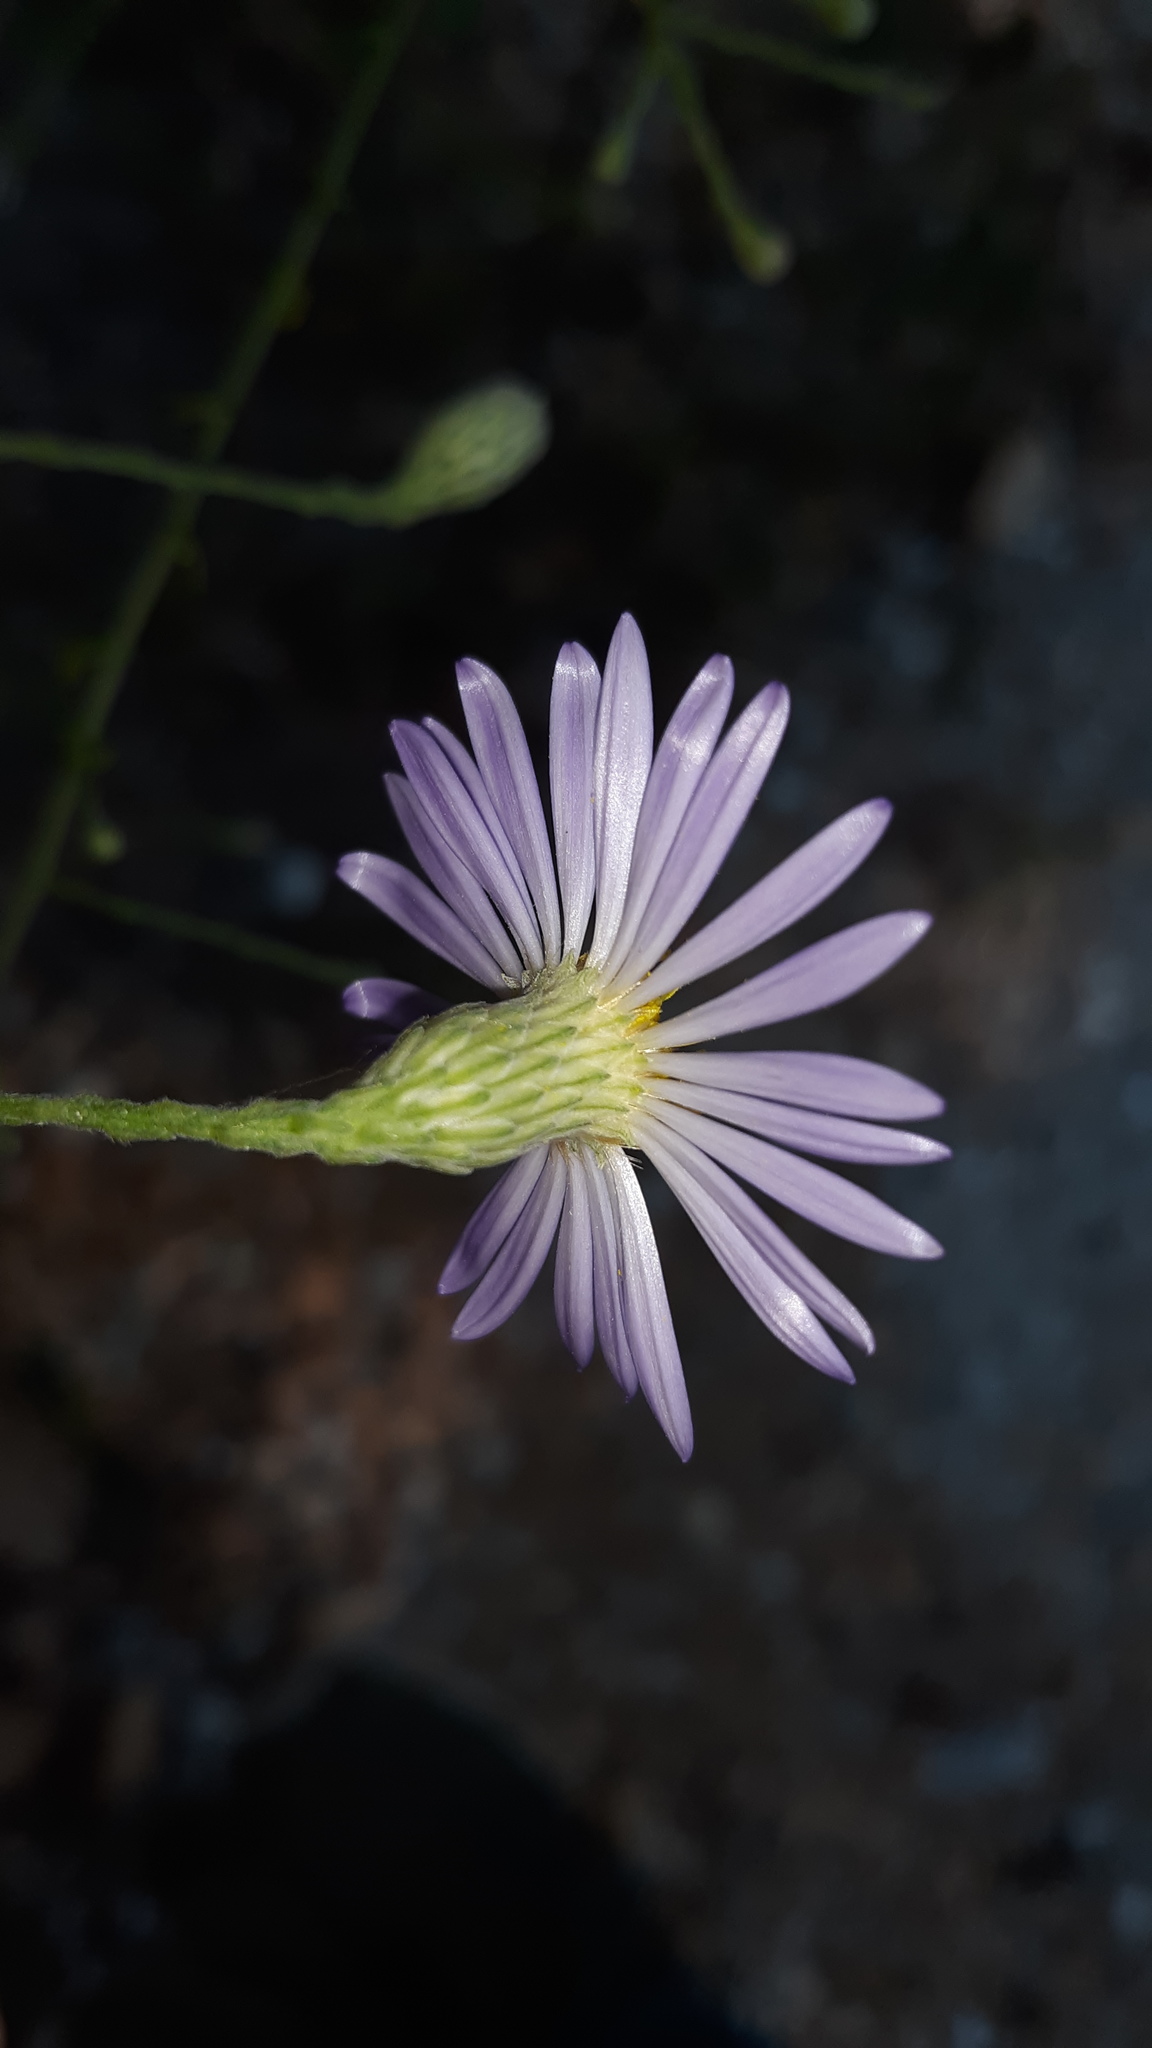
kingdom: Plantae
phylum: Tracheophyta
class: Magnoliopsida
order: Asterales
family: Asteraceae
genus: Symphyotrichum
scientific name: Symphyotrichum patens
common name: Late purple aster
